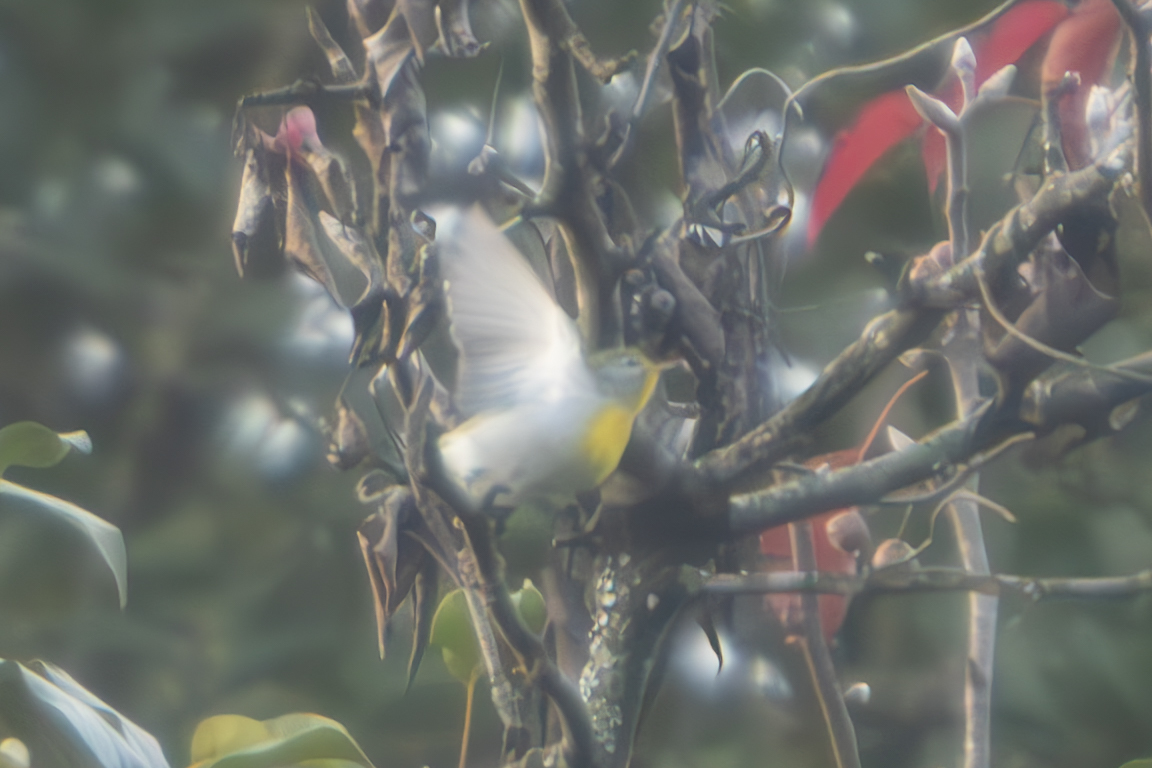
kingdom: Animalia
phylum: Chordata
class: Aves
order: Passeriformes
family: Parulidae
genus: Setophaga
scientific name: Setophaga americana
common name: Northern parula
